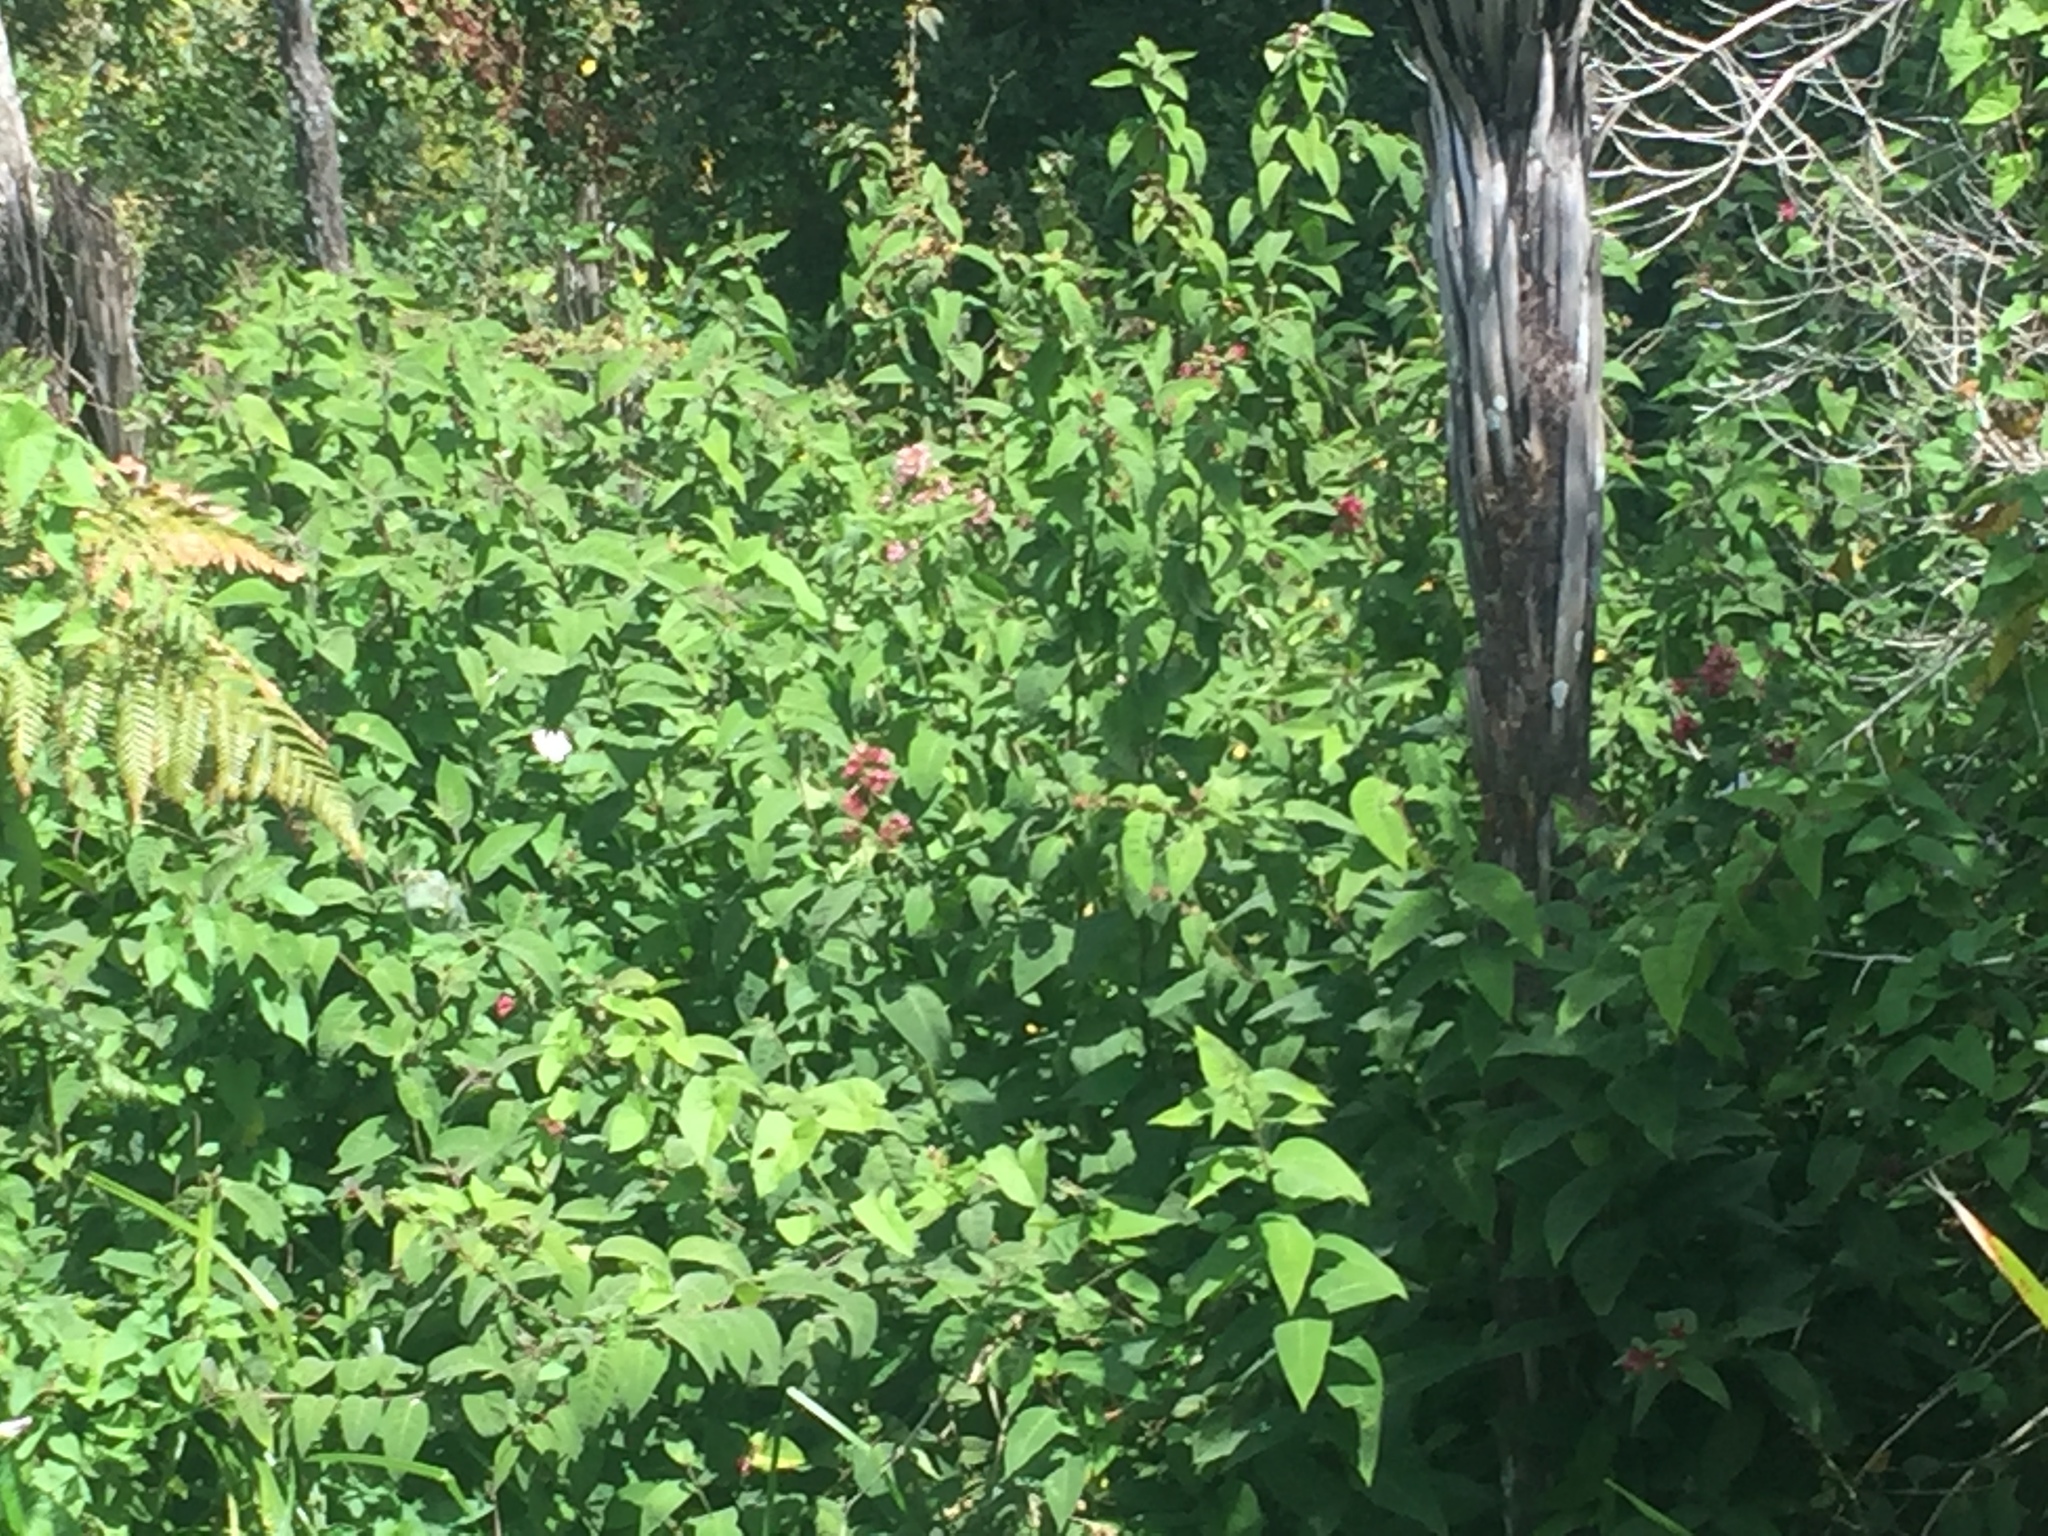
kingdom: Plantae
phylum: Tracheophyta
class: Magnoliopsida
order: Dipsacales
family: Caprifoliaceae
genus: Leycesteria
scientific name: Leycesteria formosa
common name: Himalayan honeysuckle
